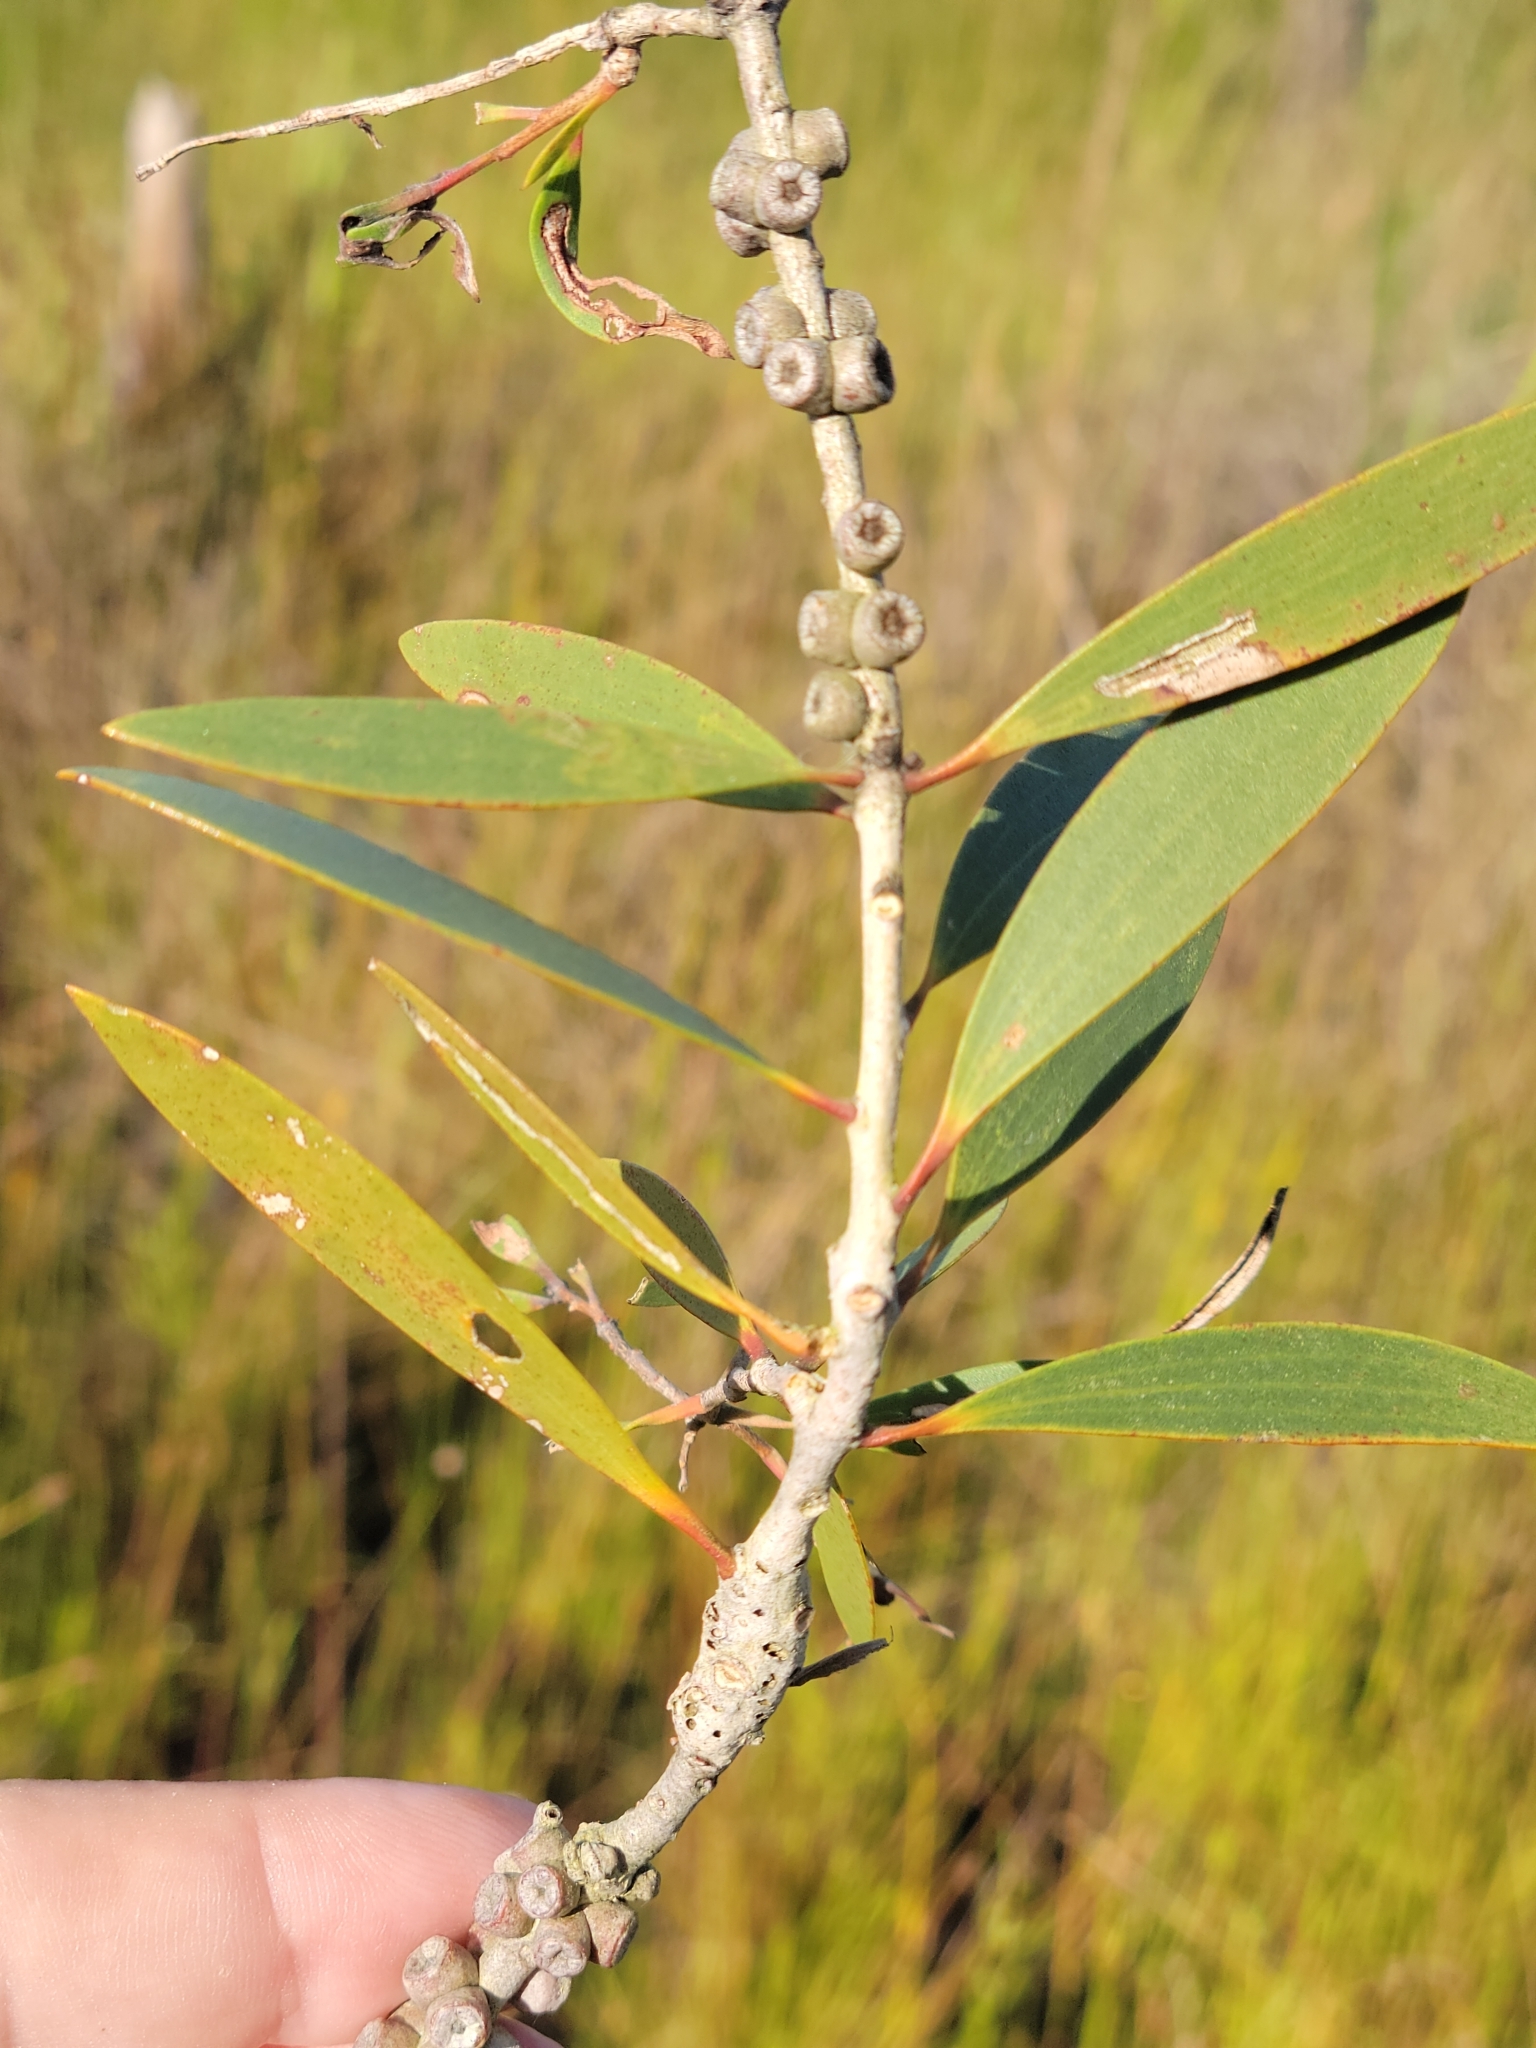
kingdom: Plantae
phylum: Tracheophyta
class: Magnoliopsida
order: Myrtales
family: Myrtaceae
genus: Melaleuca
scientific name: Melaleuca quinquenervia
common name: Punktree
